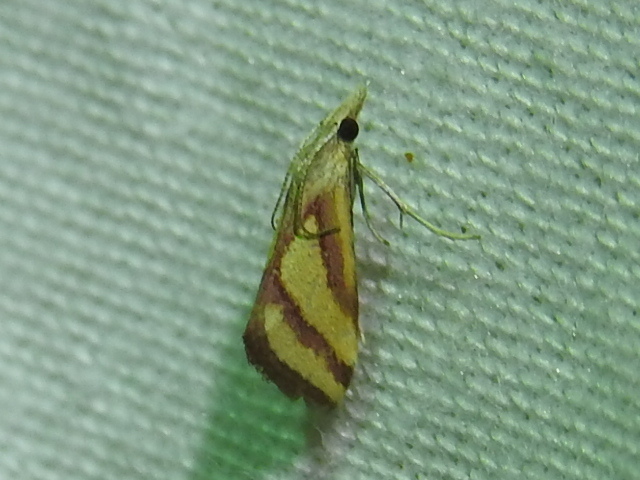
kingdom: Animalia
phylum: Arthropoda
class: Insecta
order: Lepidoptera
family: Crambidae
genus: Microtheoris
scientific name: Microtheoris vibicalis
